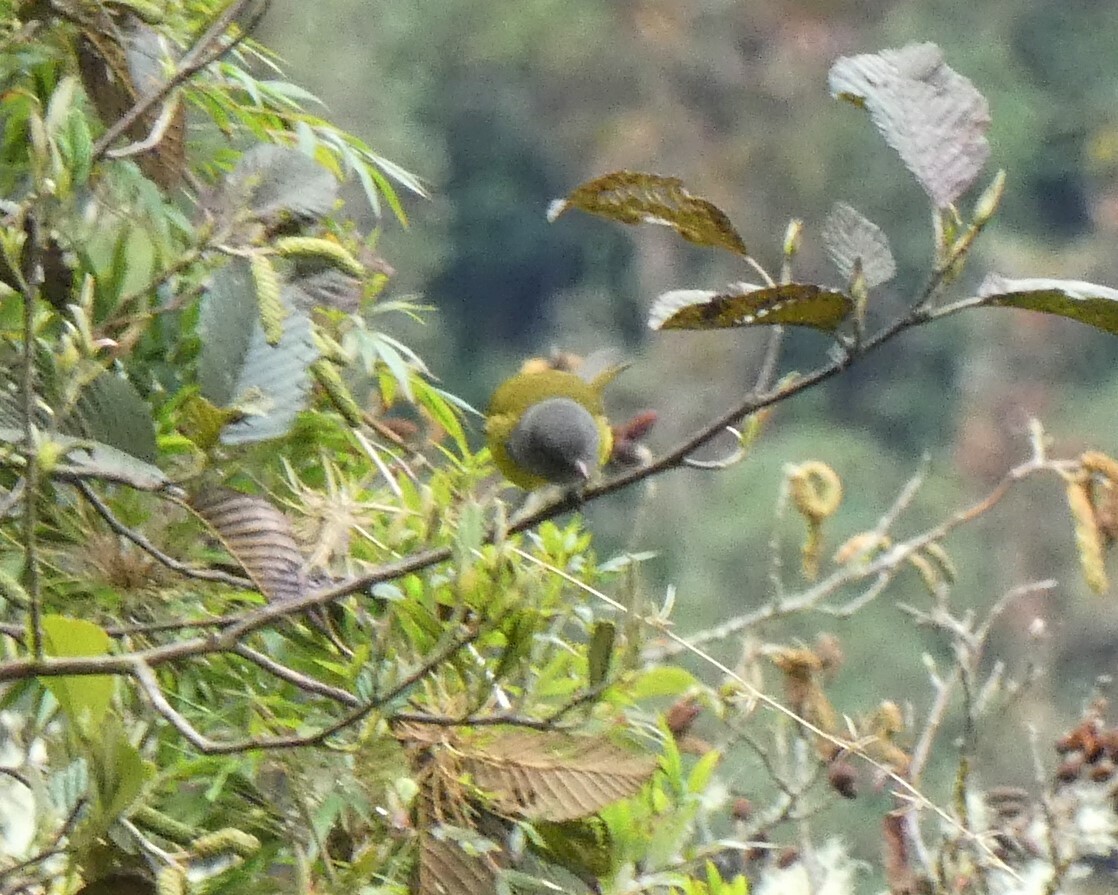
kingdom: Animalia
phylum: Chordata
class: Aves
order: Passeriformes
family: Thraupidae
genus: Cnemoscopus
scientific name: Cnemoscopus rubrirostris
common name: Grey-hooded bush tanager
